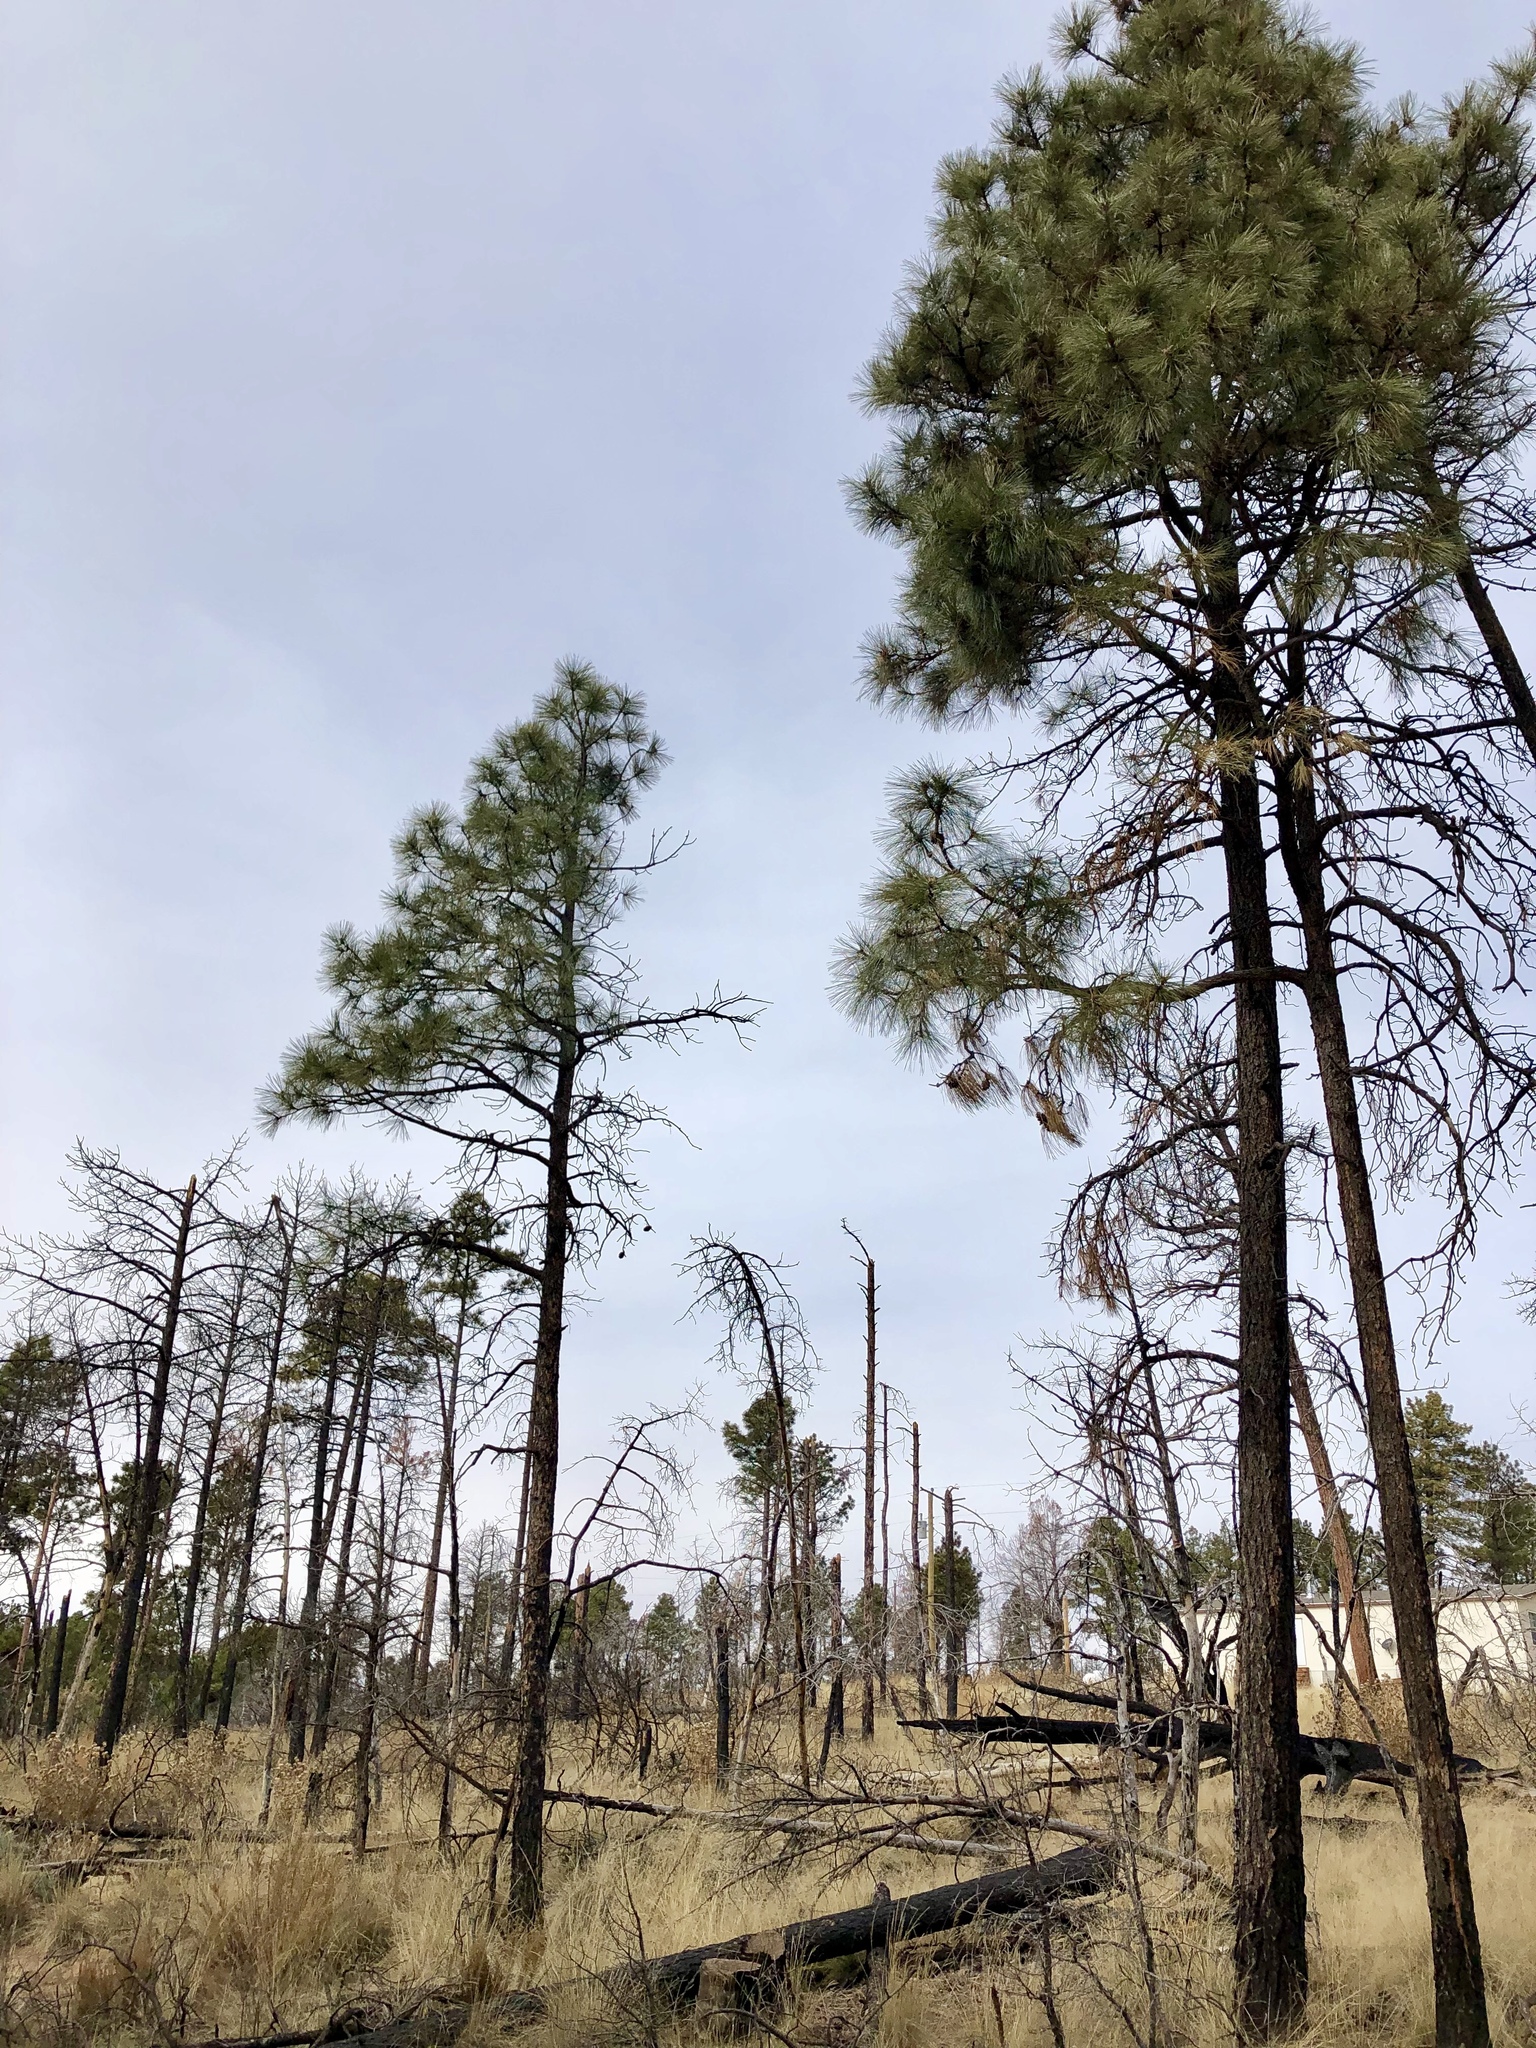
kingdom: Plantae
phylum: Tracheophyta
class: Pinopsida
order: Pinales
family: Pinaceae
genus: Pinus
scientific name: Pinus ponderosa
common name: Western yellow-pine
